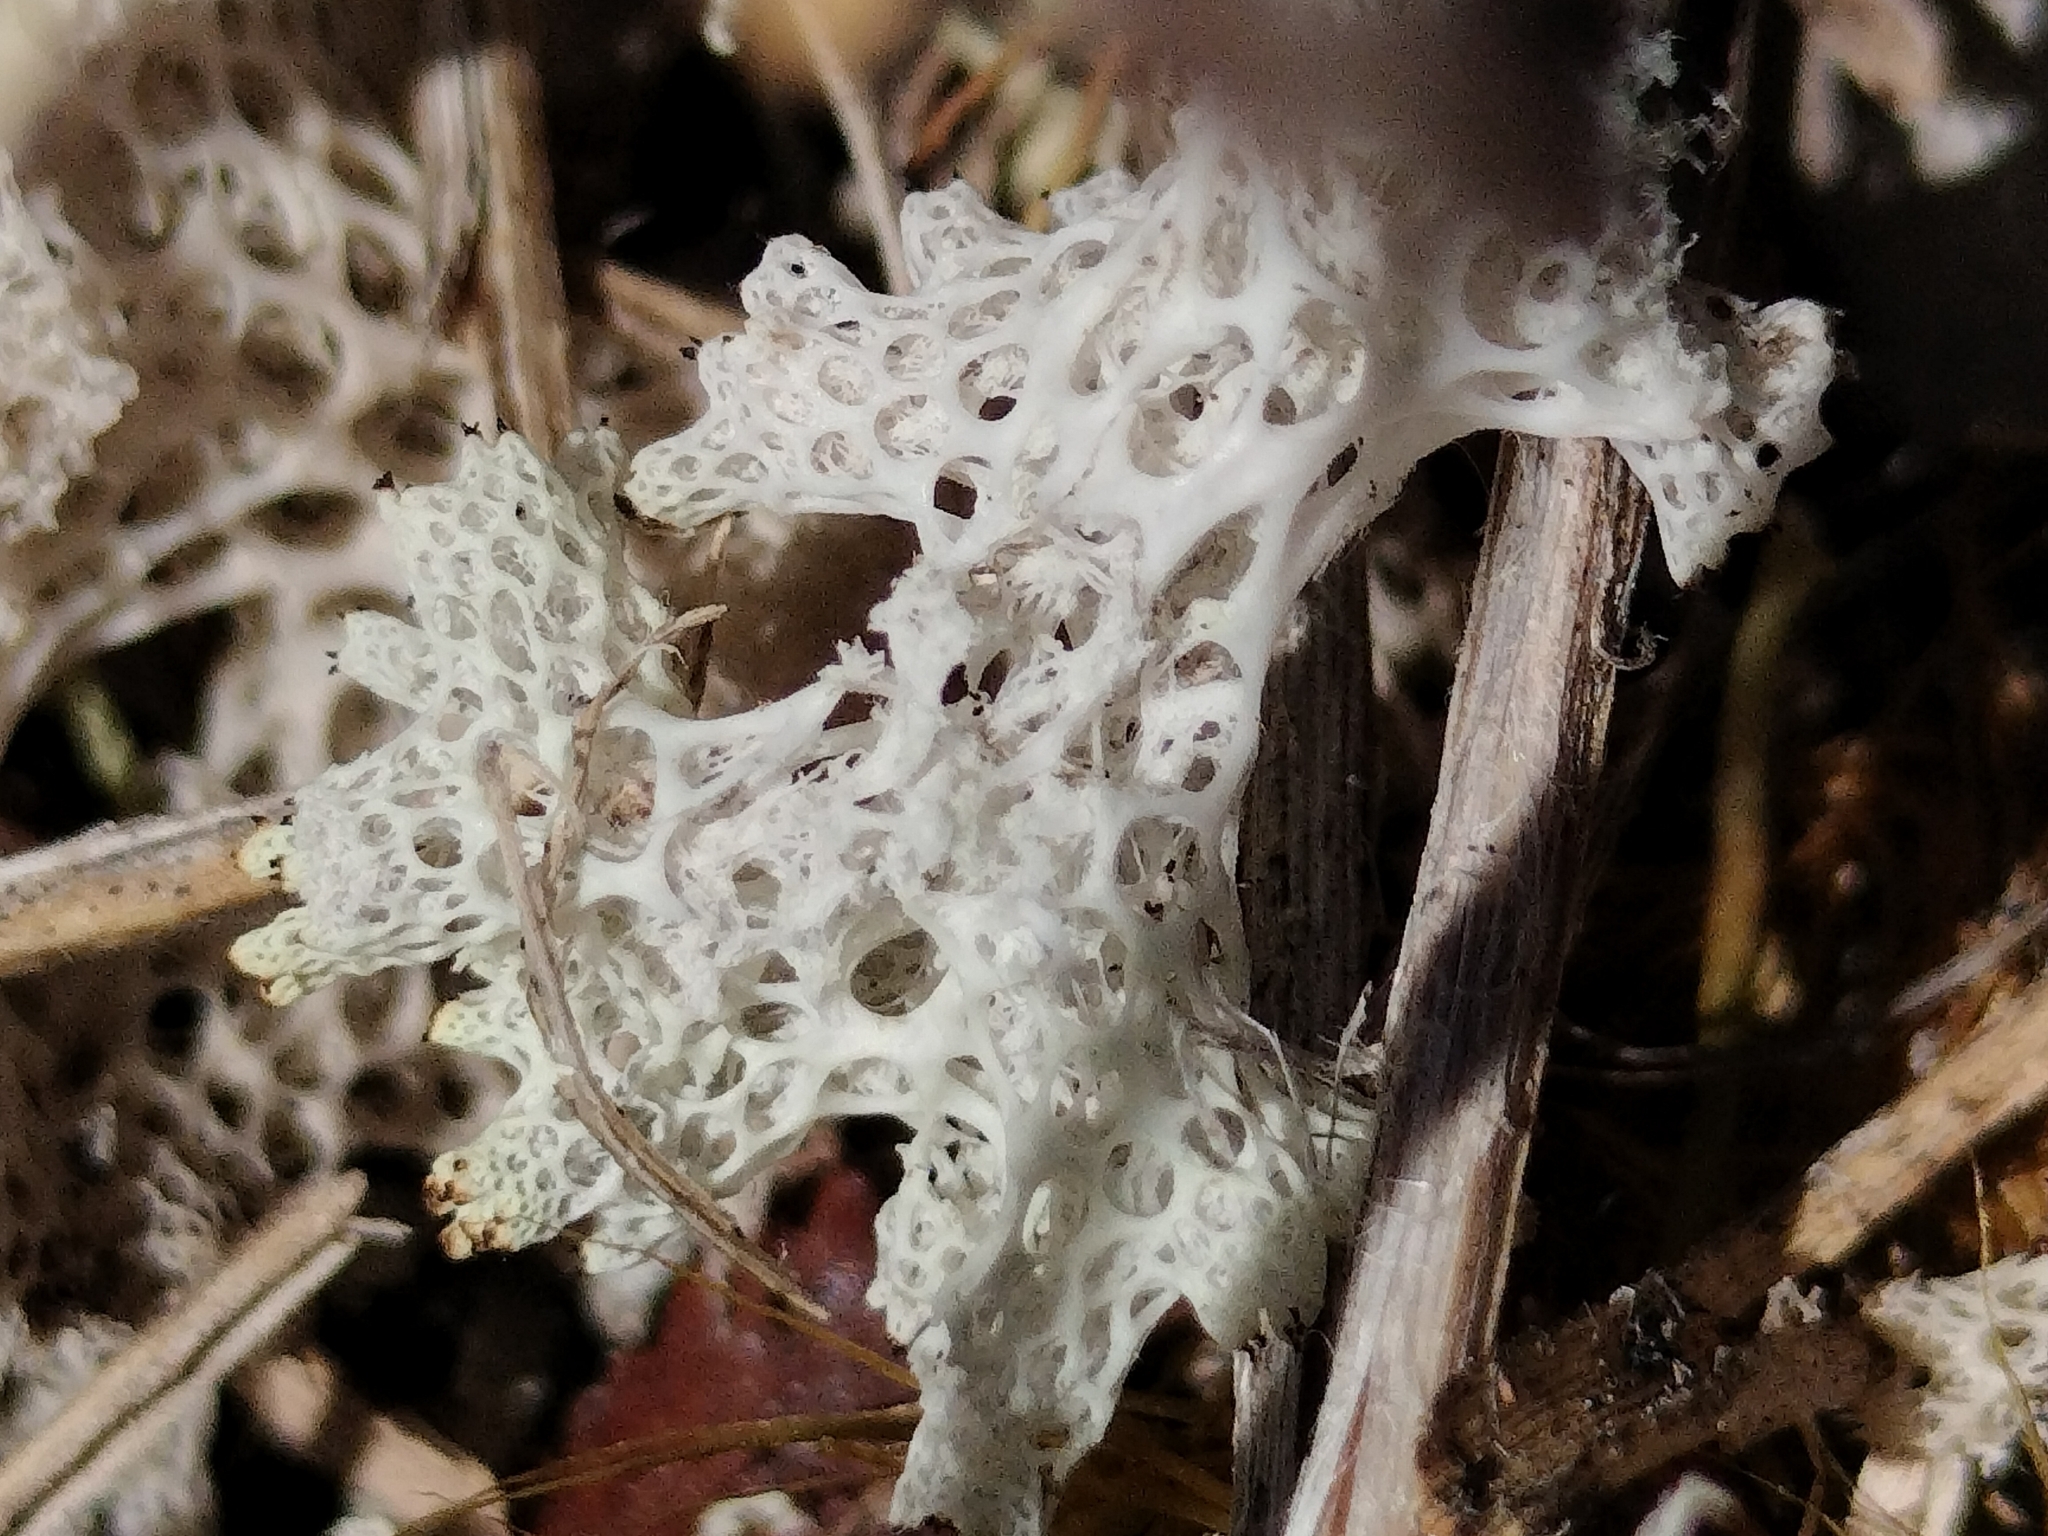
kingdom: Fungi
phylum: Ascomycota
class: Lecanoromycetes
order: Lecanorales
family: Cladoniaceae
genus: Pulchrocladia
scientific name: Pulchrocladia retipora
